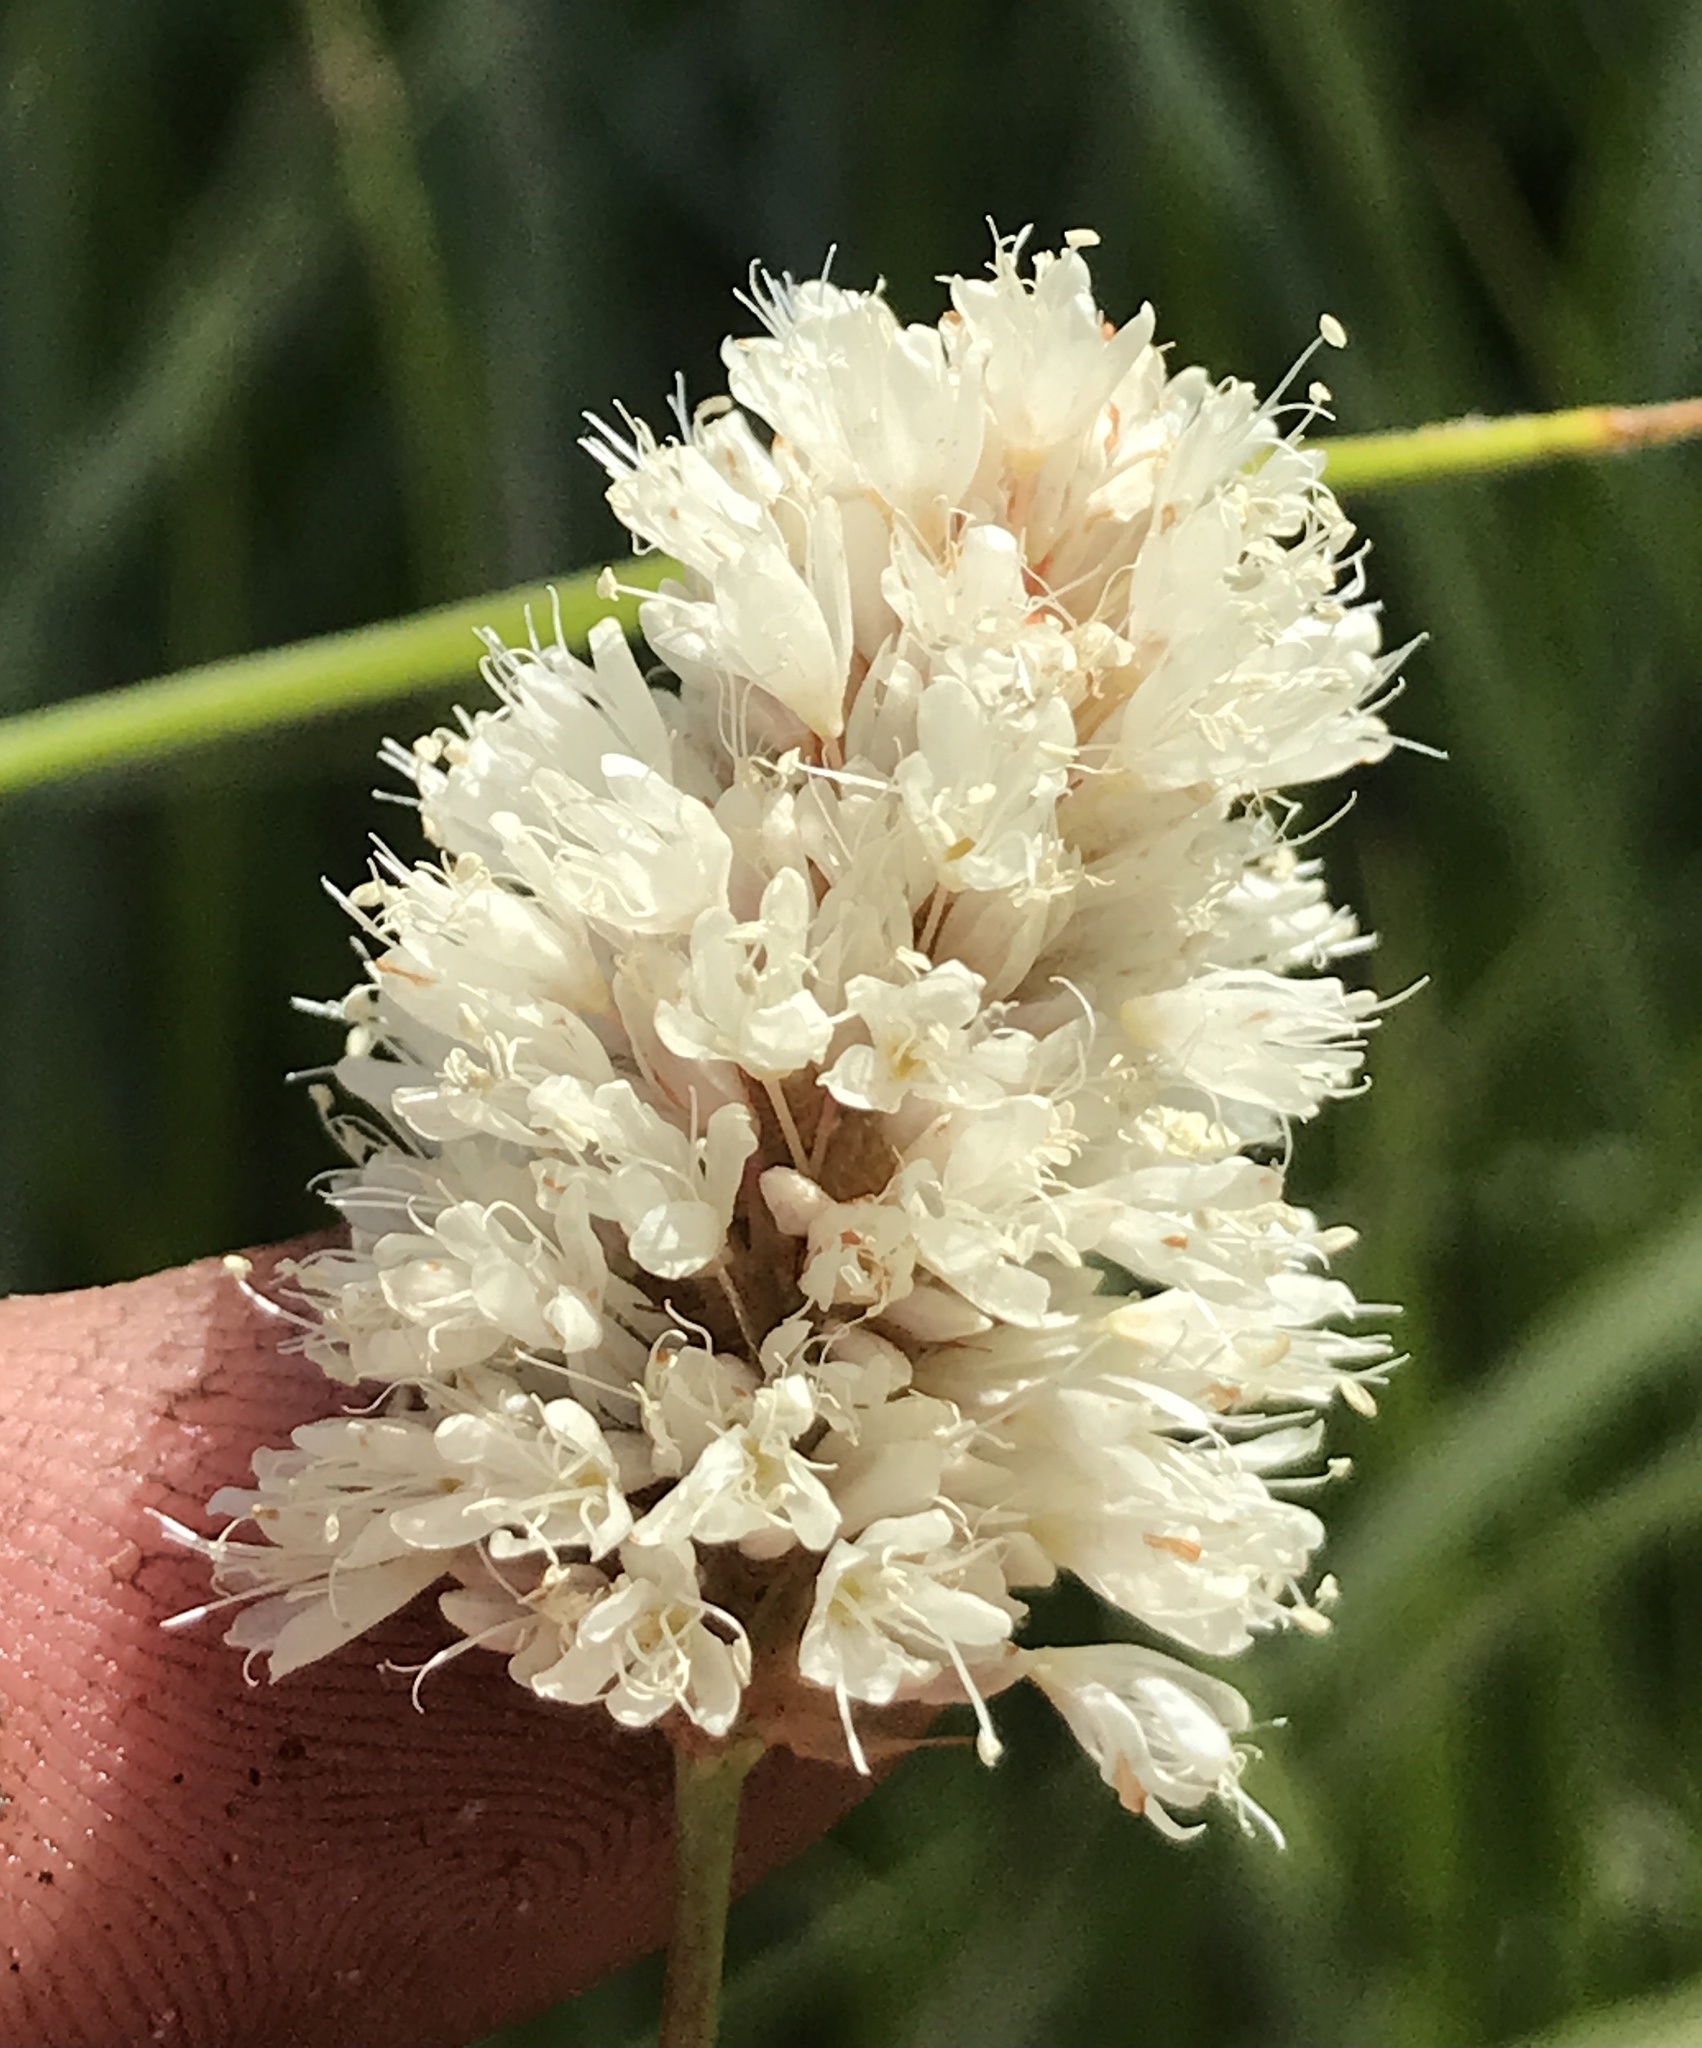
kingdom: Plantae
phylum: Tracheophyta
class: Magnoliopsida
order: Caryophyllales
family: Polygonaceae
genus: Bistorta
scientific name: Bistorta bistortoides
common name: American bistort
